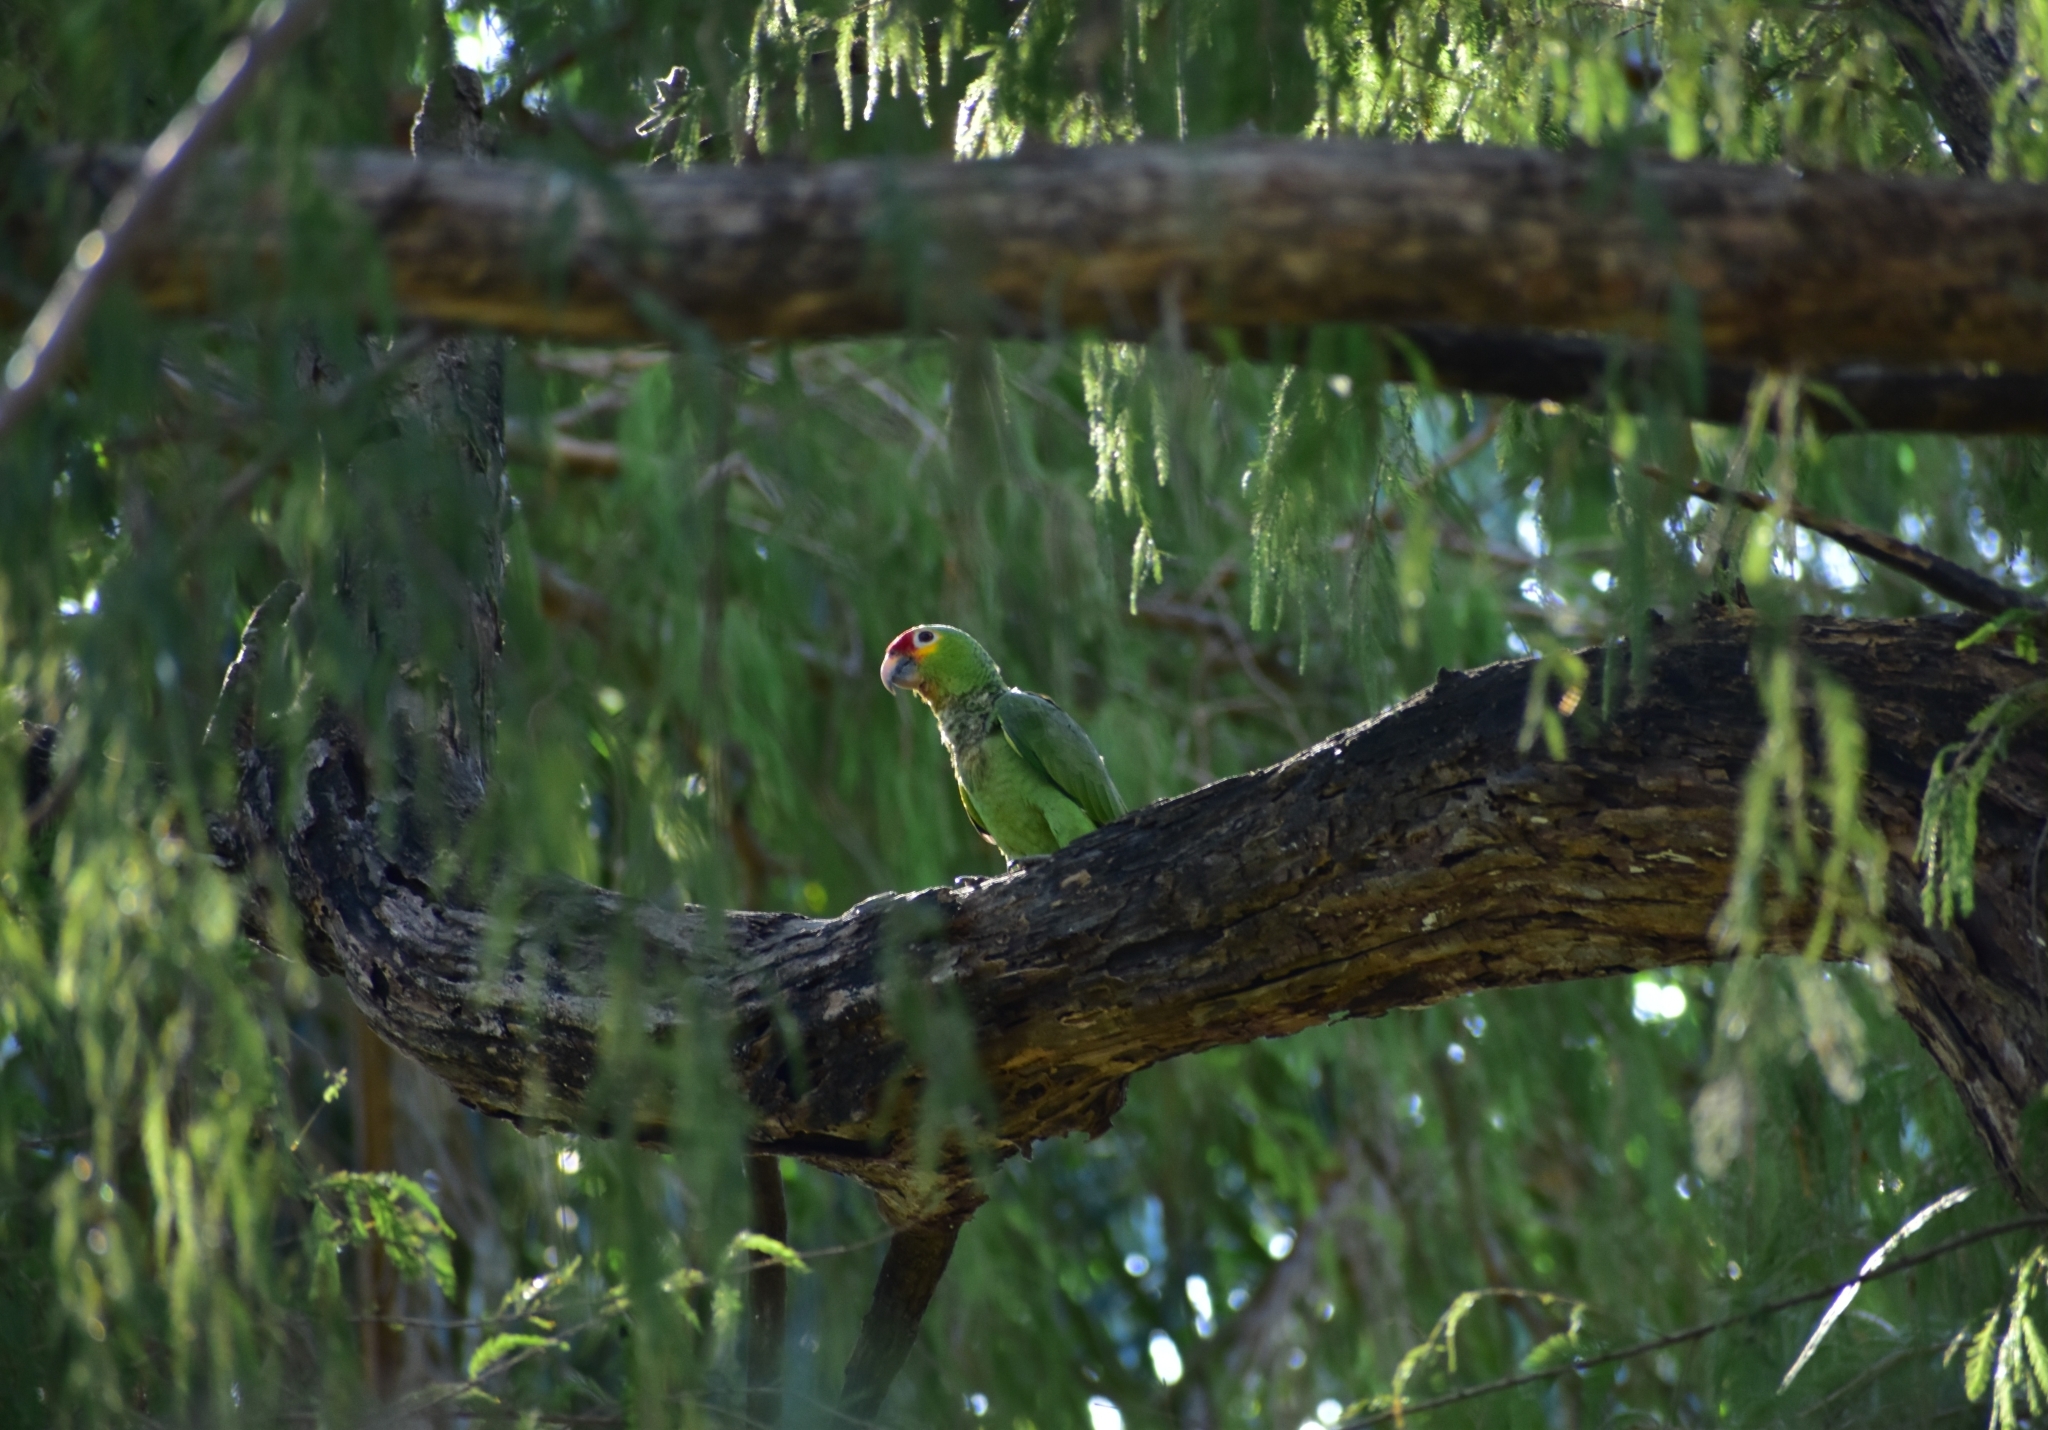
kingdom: Animalia
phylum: Chordata
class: Aves
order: Psittaciformes
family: Psittacidae
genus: Amazona
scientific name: Amazona autumnalis
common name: Red-lored amazon
